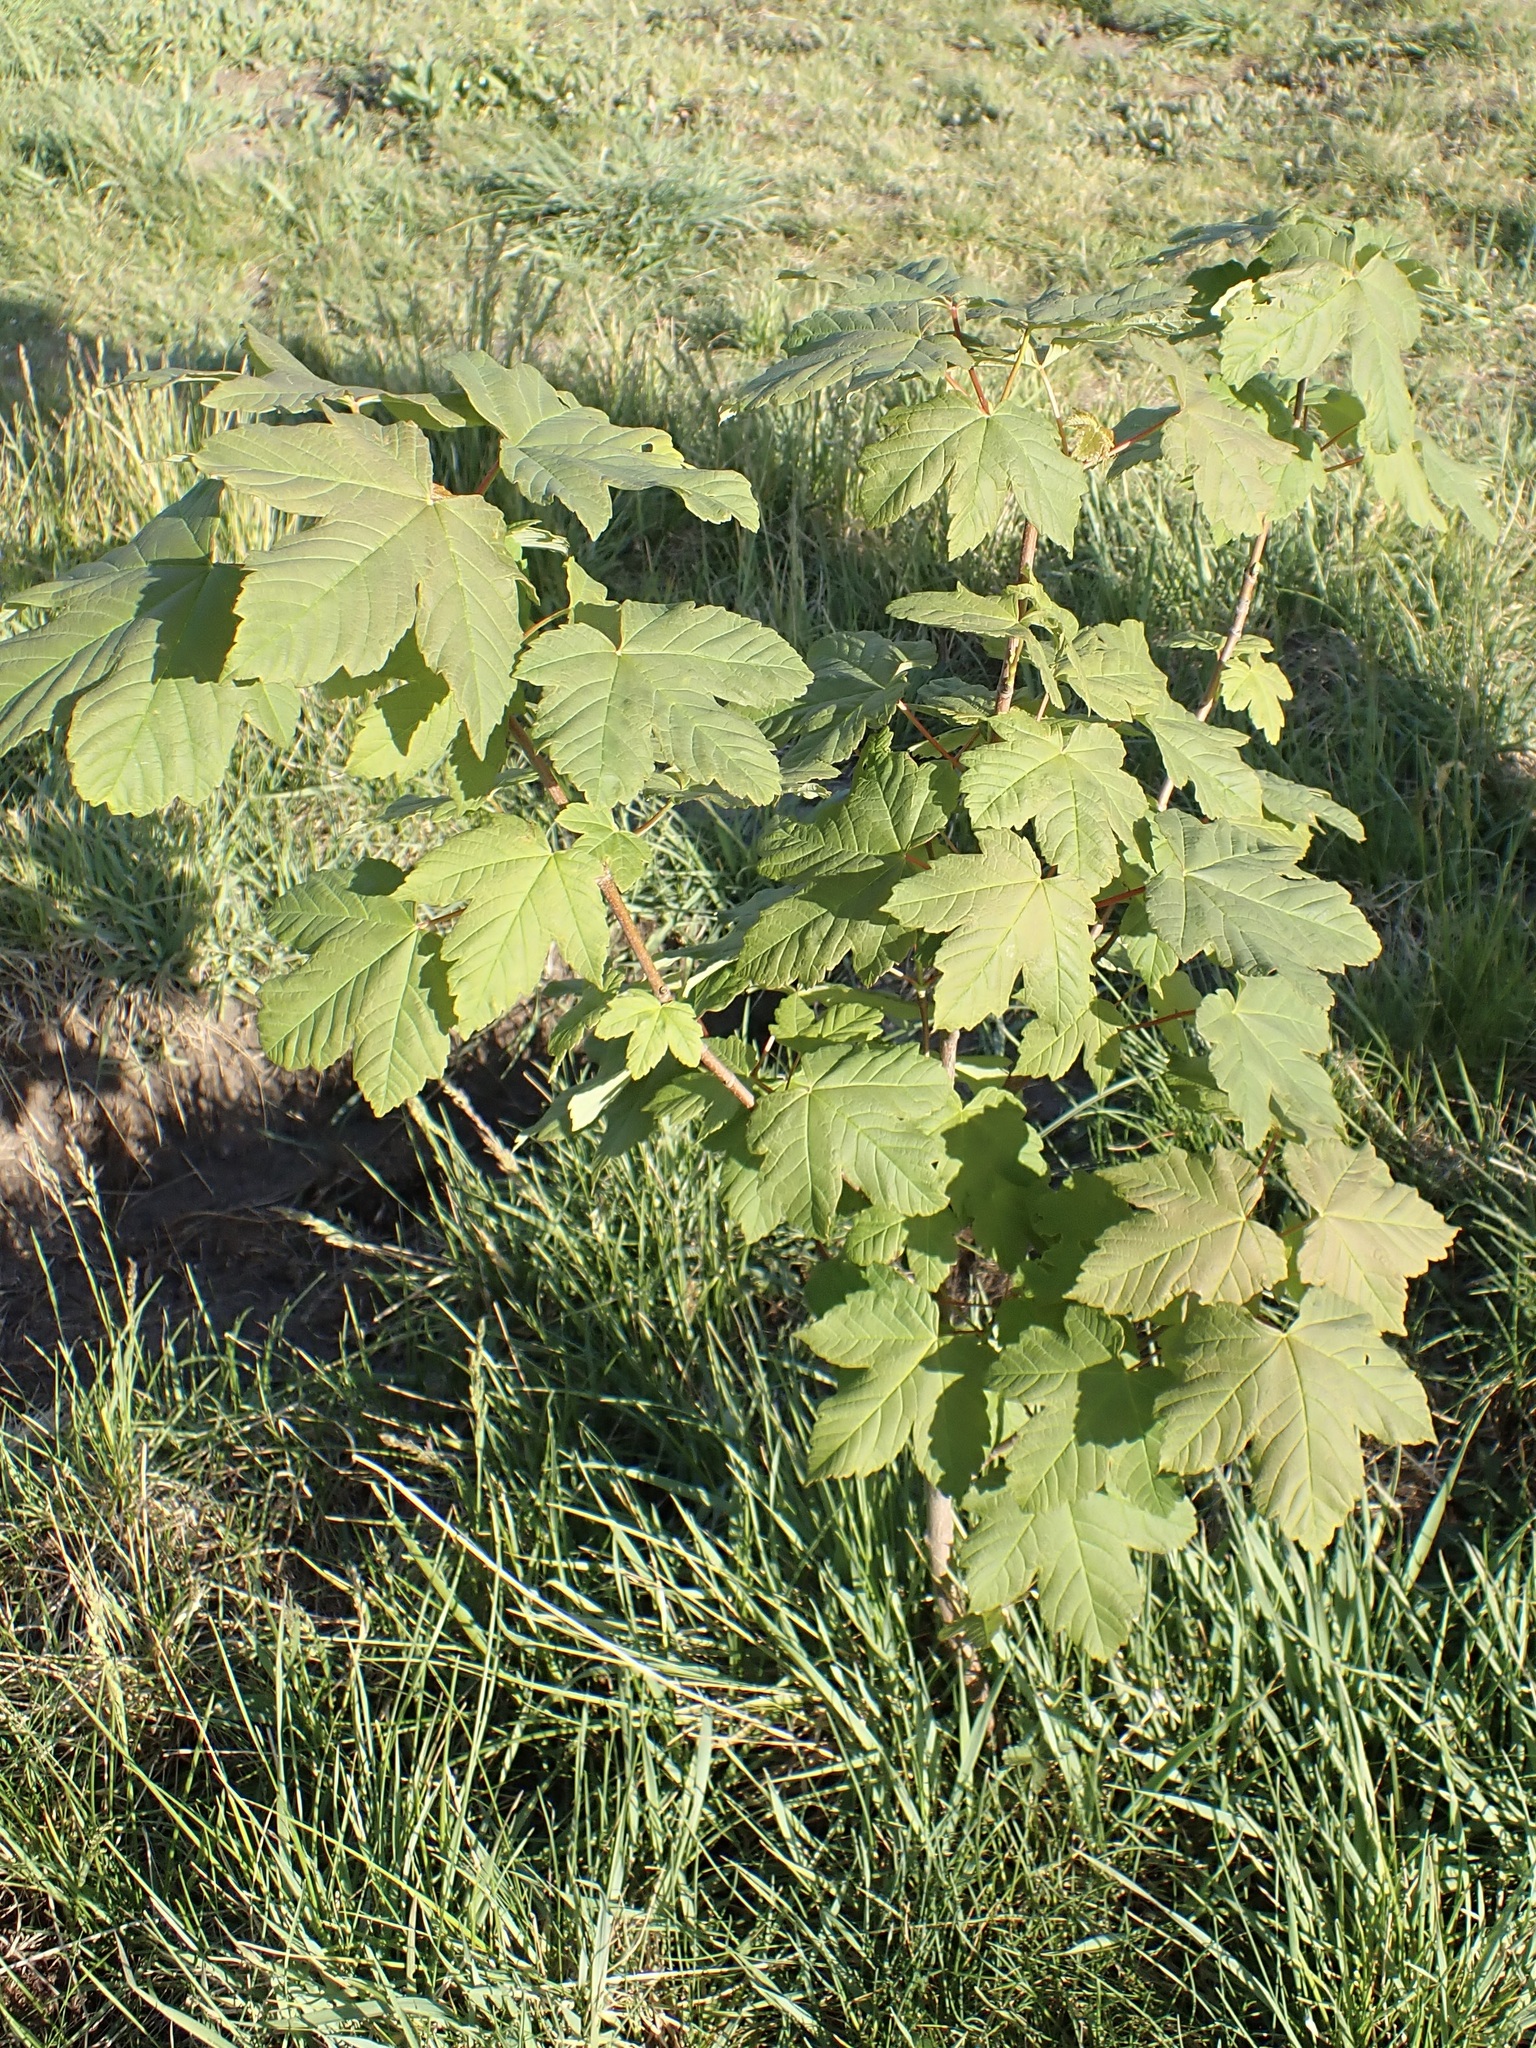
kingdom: Plantae
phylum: Tracheophyta
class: Magnoliopsida
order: Sapindales
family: Sapindaceae
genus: Acer
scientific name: Acer pseudoplatanus
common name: Sycamore
